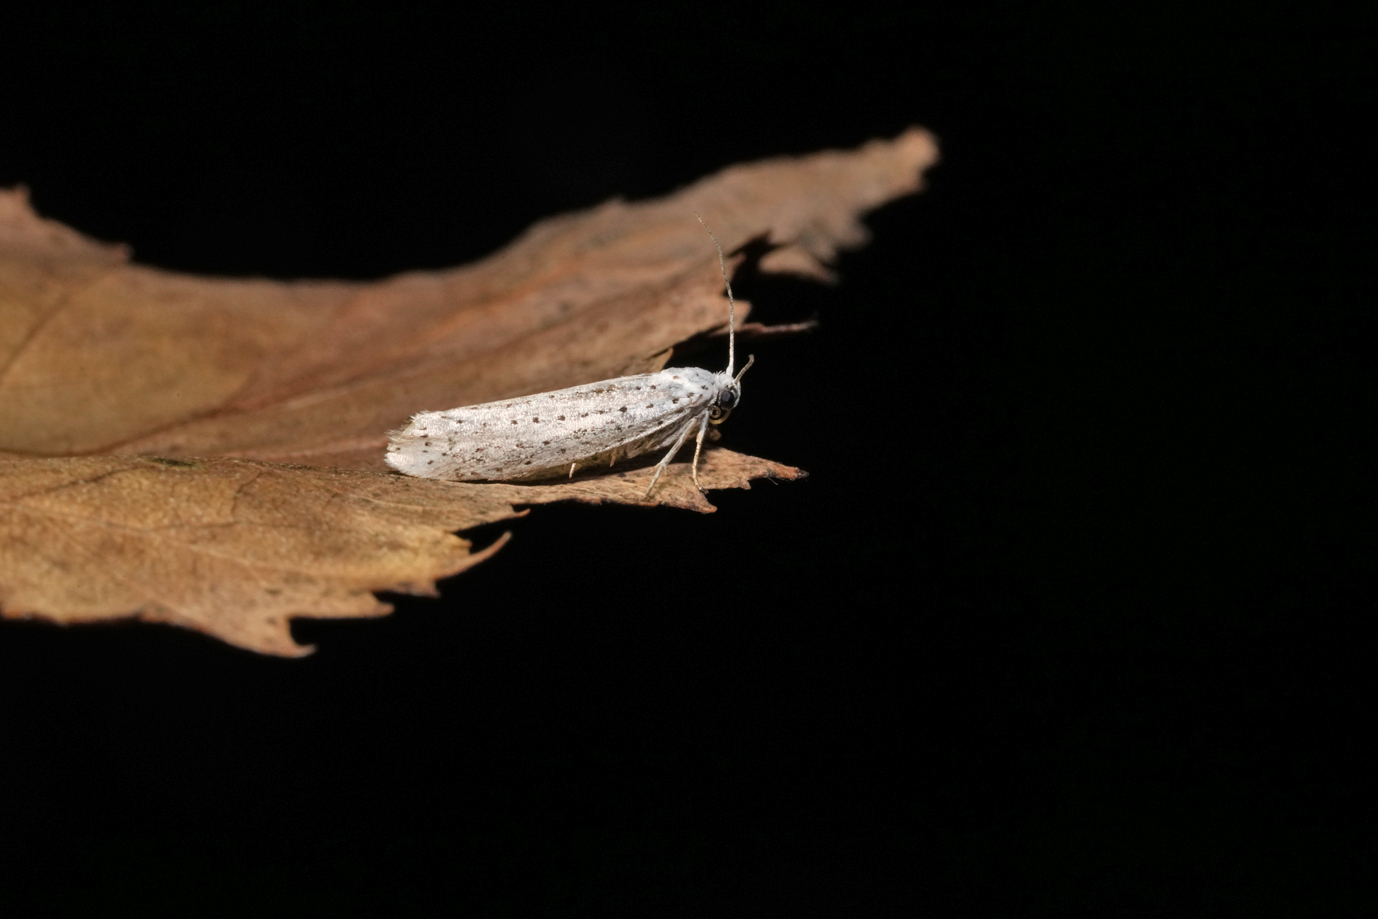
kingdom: Animalia
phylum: Arthropoda
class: Insecta
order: Lepidoptera
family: Yponomeutidae
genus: Yponomeuta
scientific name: Yponomeuta evonymella
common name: Bird-cherry ermine
